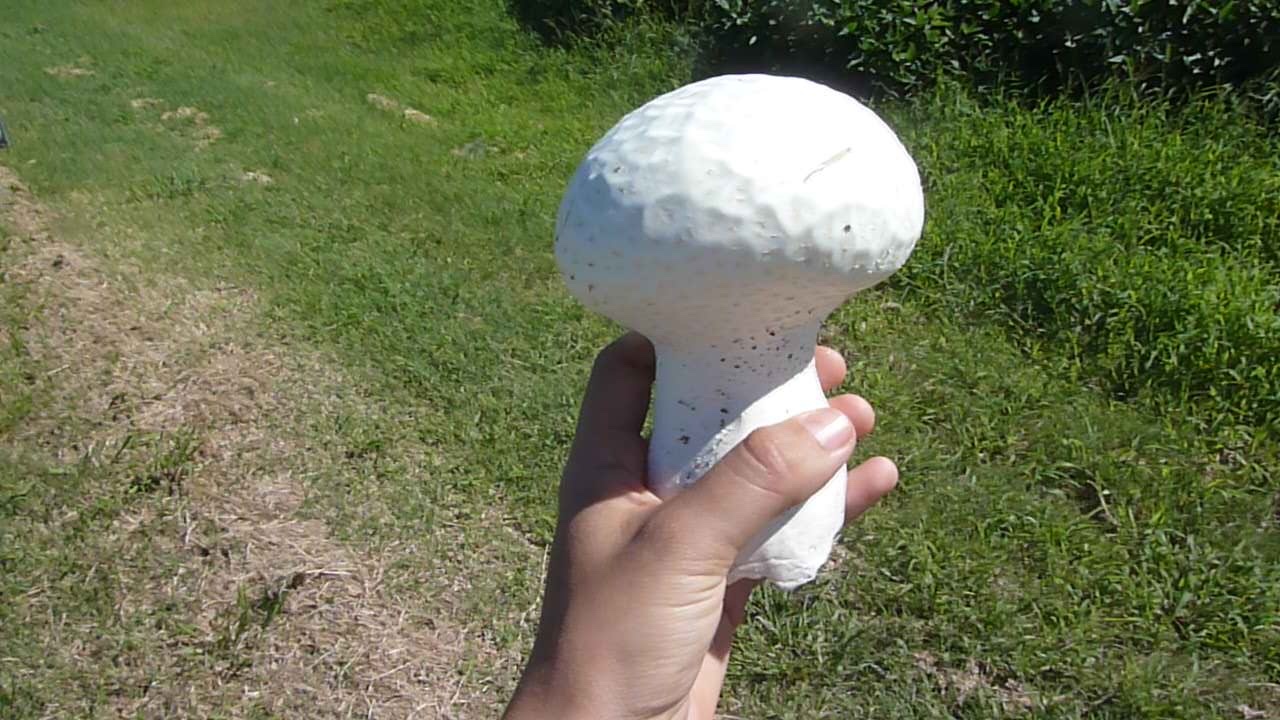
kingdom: Fungi
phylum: Basidiomycota
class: Agaricomycetes
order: Agaricales
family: Lycoperdaceae
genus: Calvatia
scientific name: Calvatia cyathiformis
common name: Purple-spored puffball
